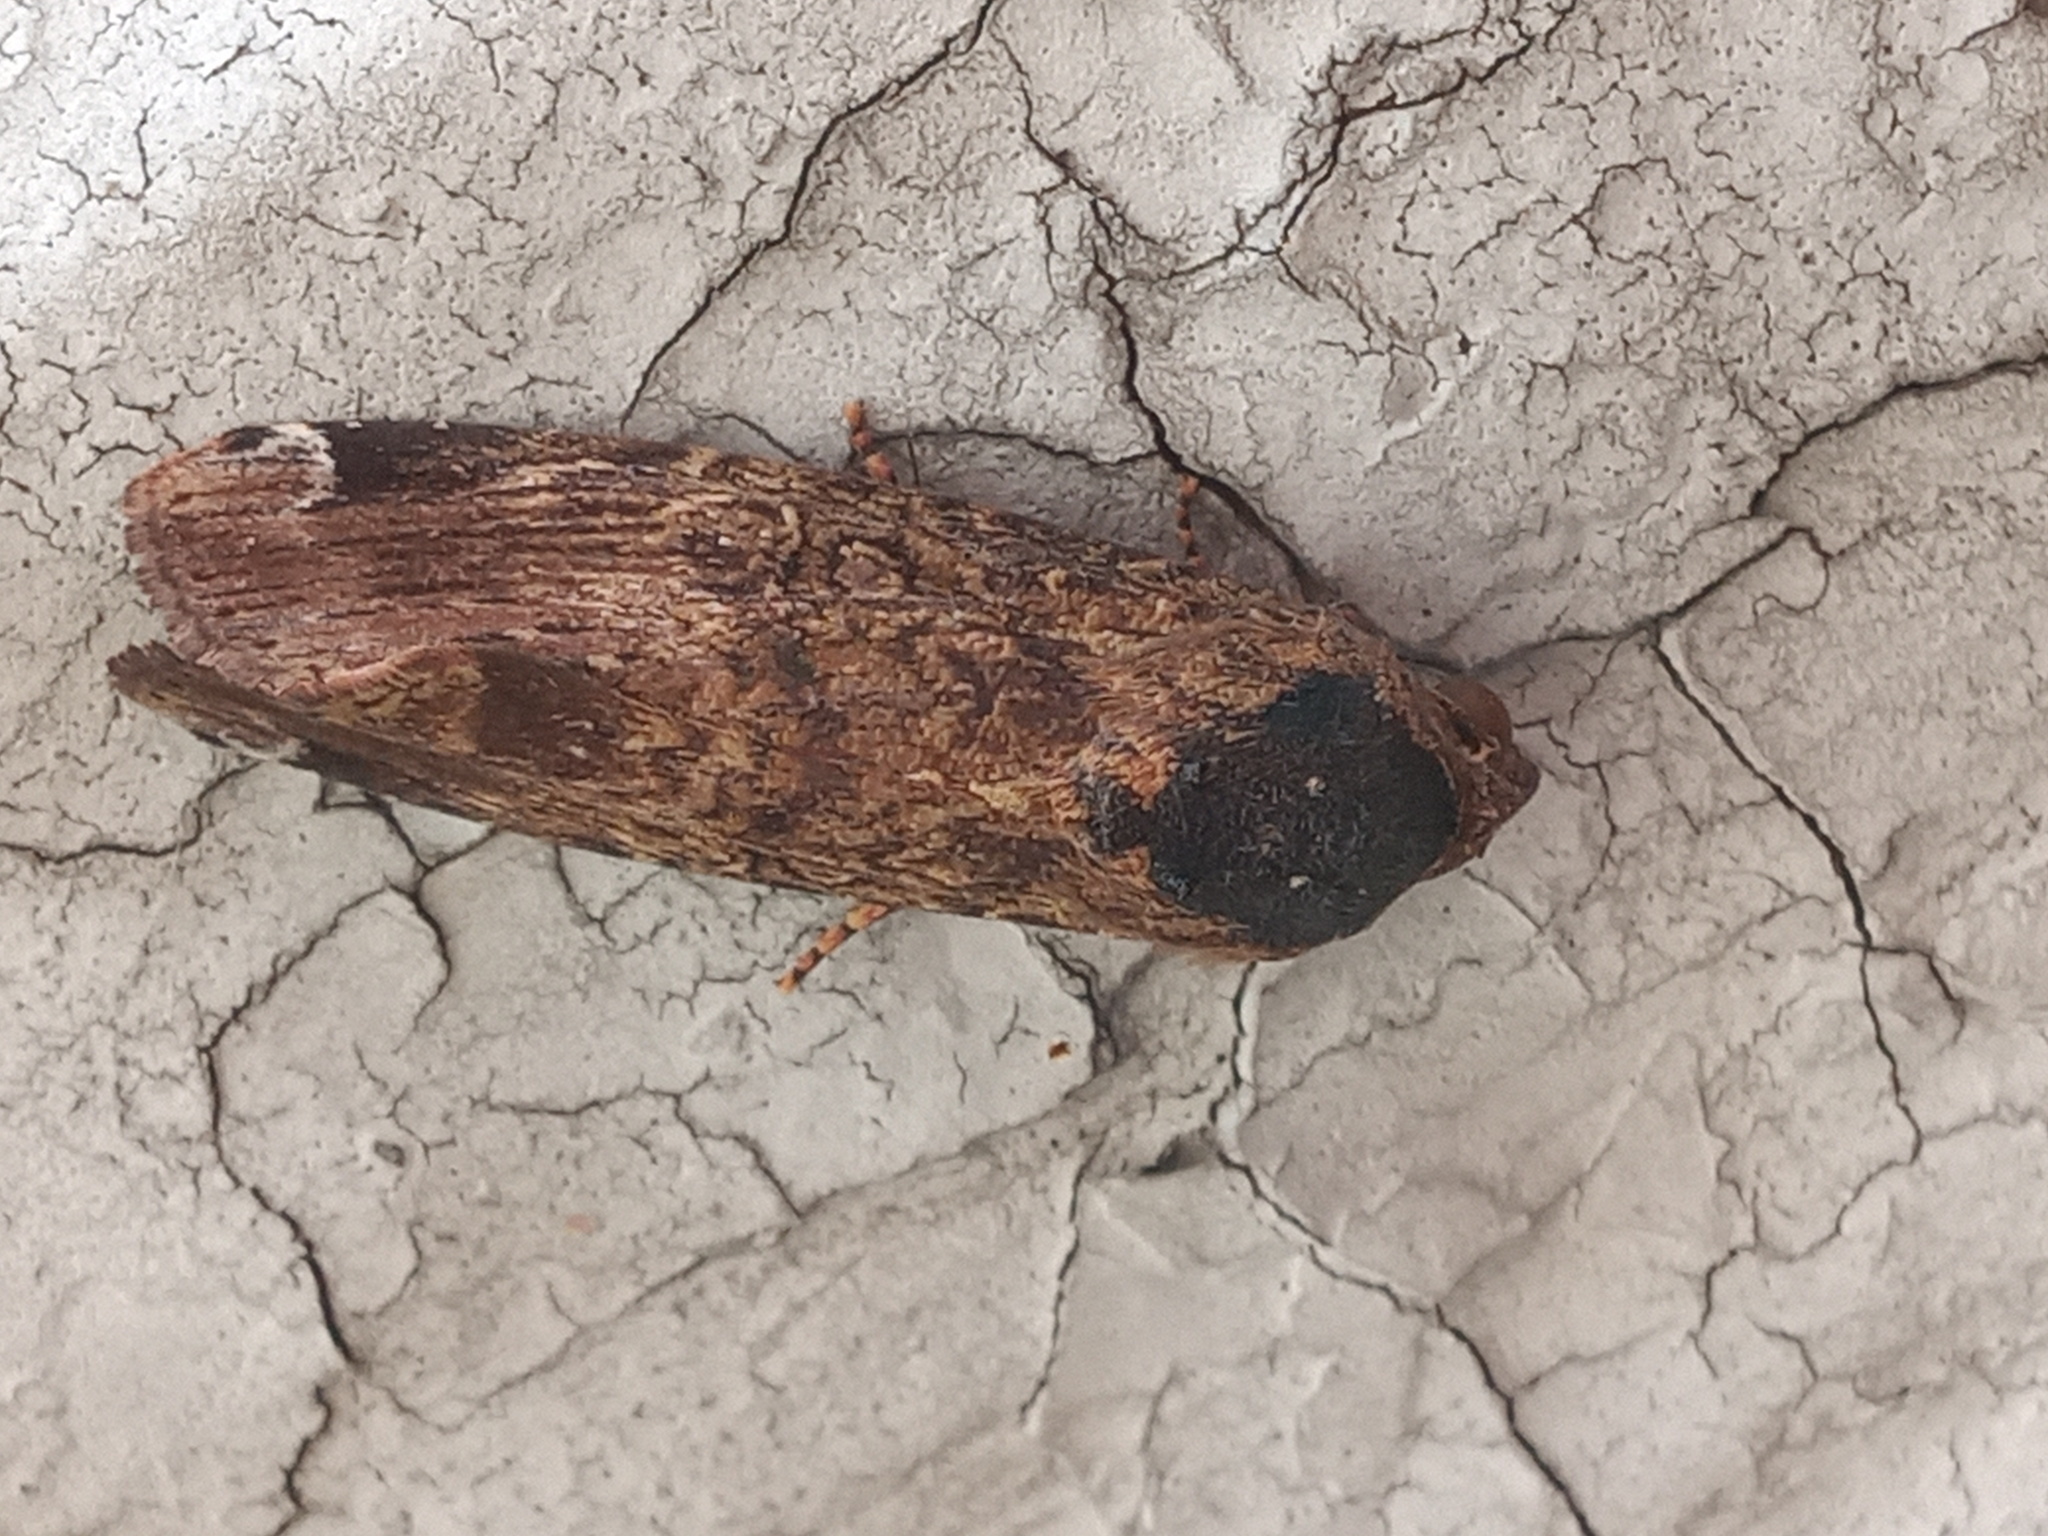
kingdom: Animalia
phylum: Arthropoda
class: Insecta
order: Lepidoptera
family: Noctuidae
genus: Magusa
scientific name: Magusa divaricata
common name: Orb narrow-winged moth
